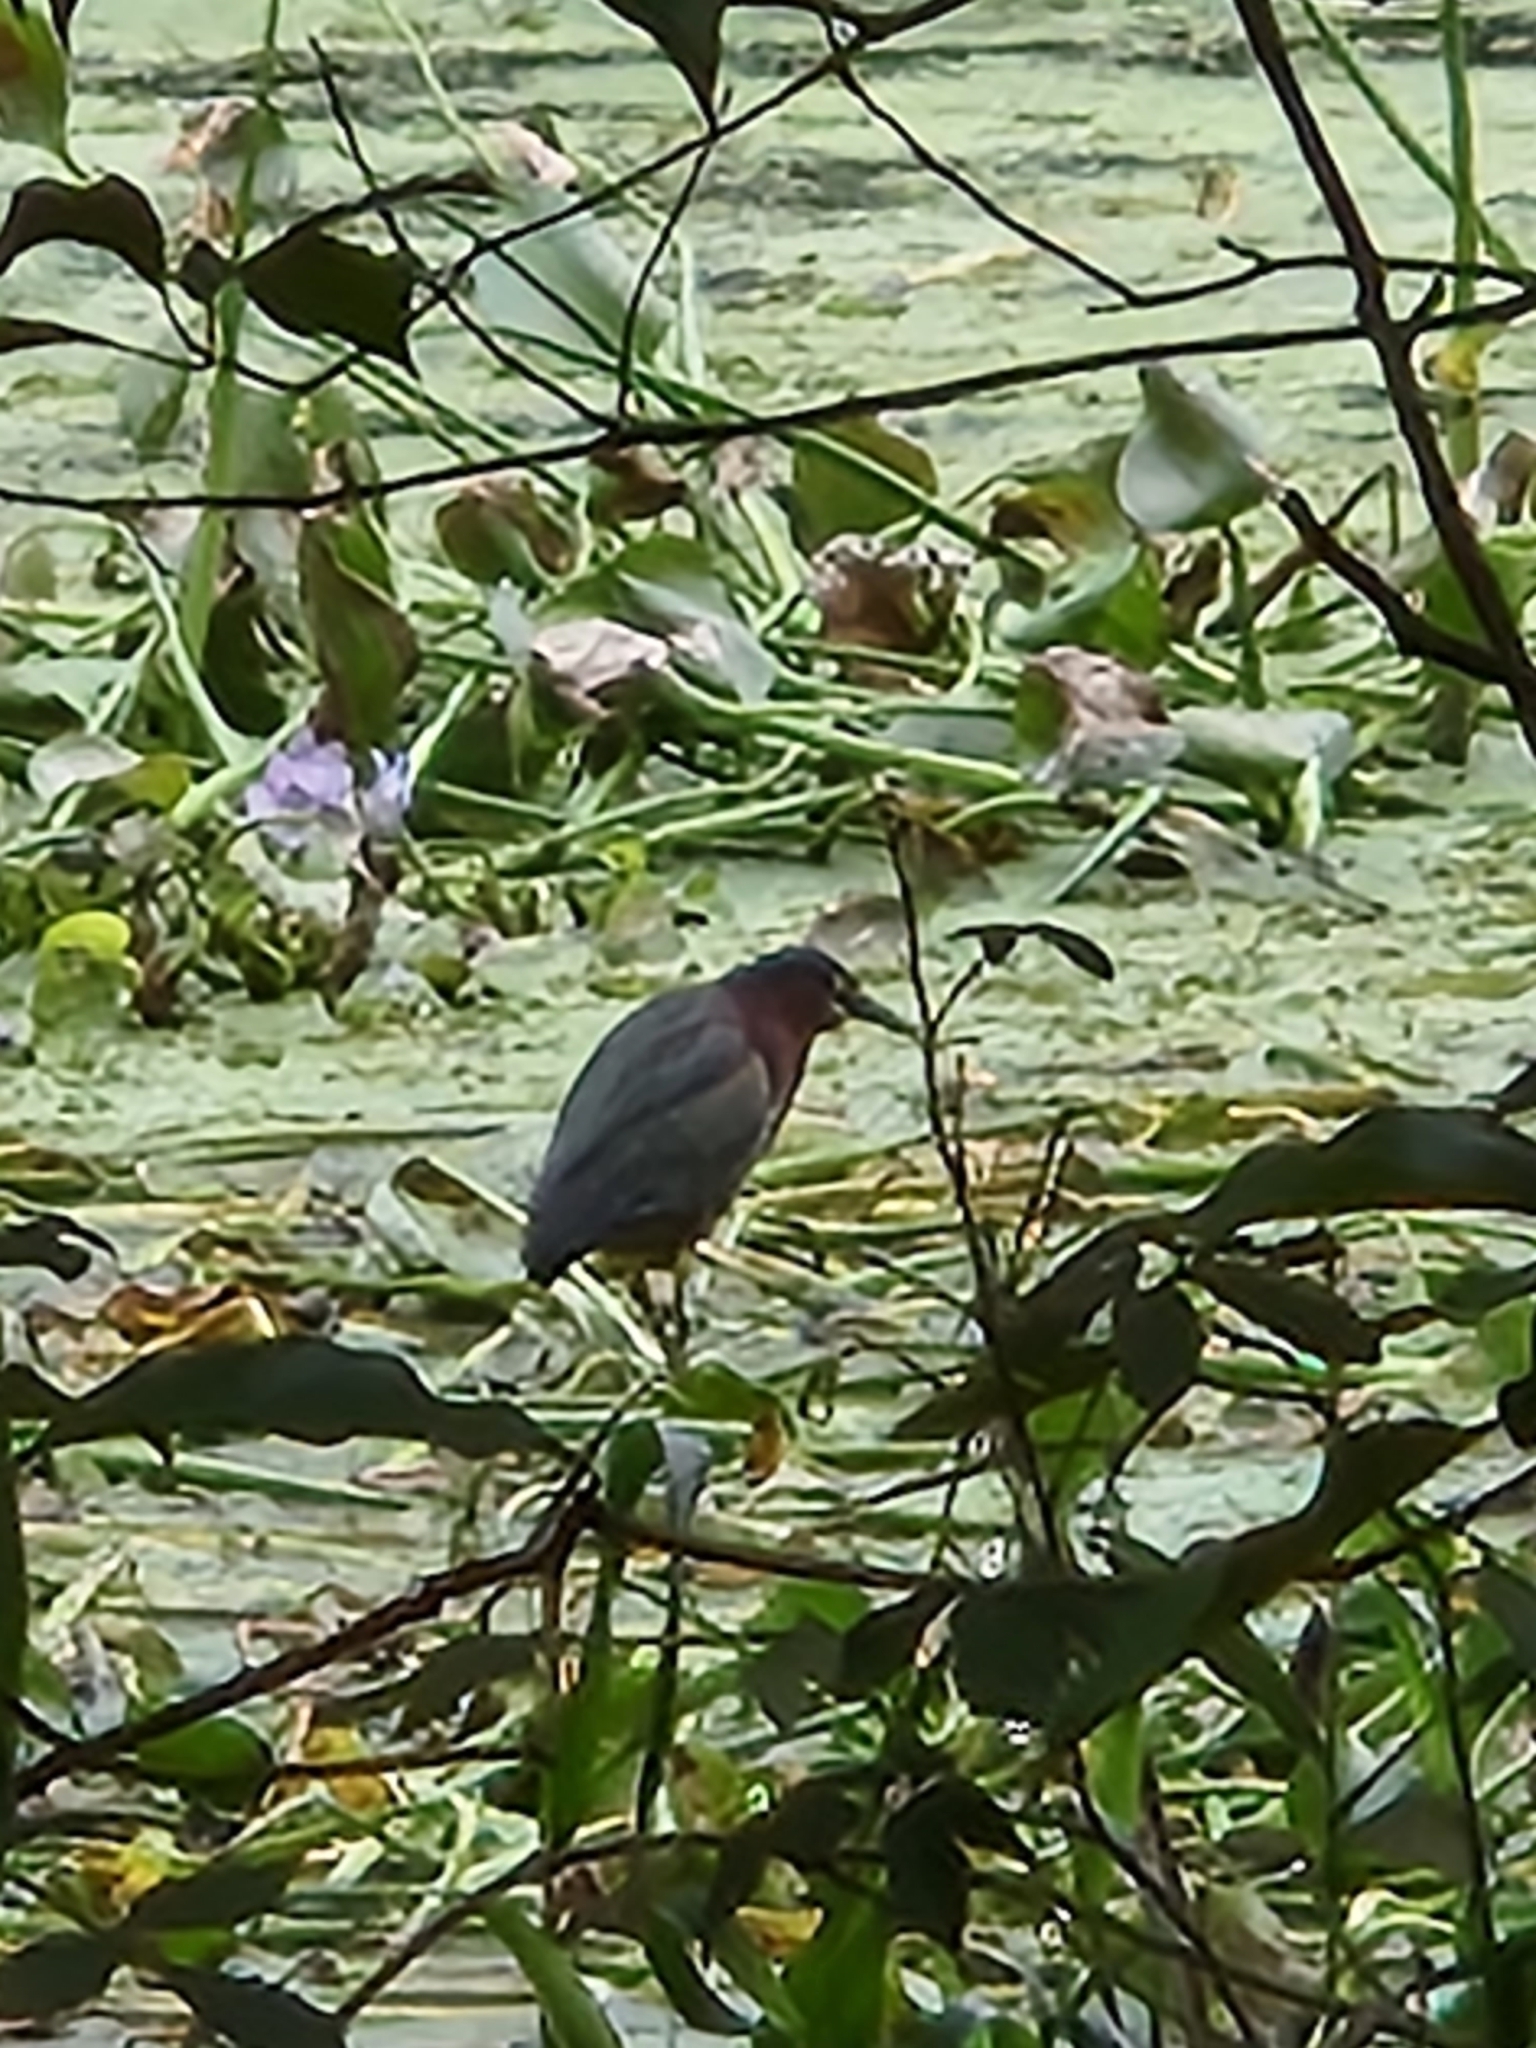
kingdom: Animalia
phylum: Chordata
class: Aves
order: Pelecaniformes
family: Ardeidae
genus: Butorides
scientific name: Butorides virescens
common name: Green heron
